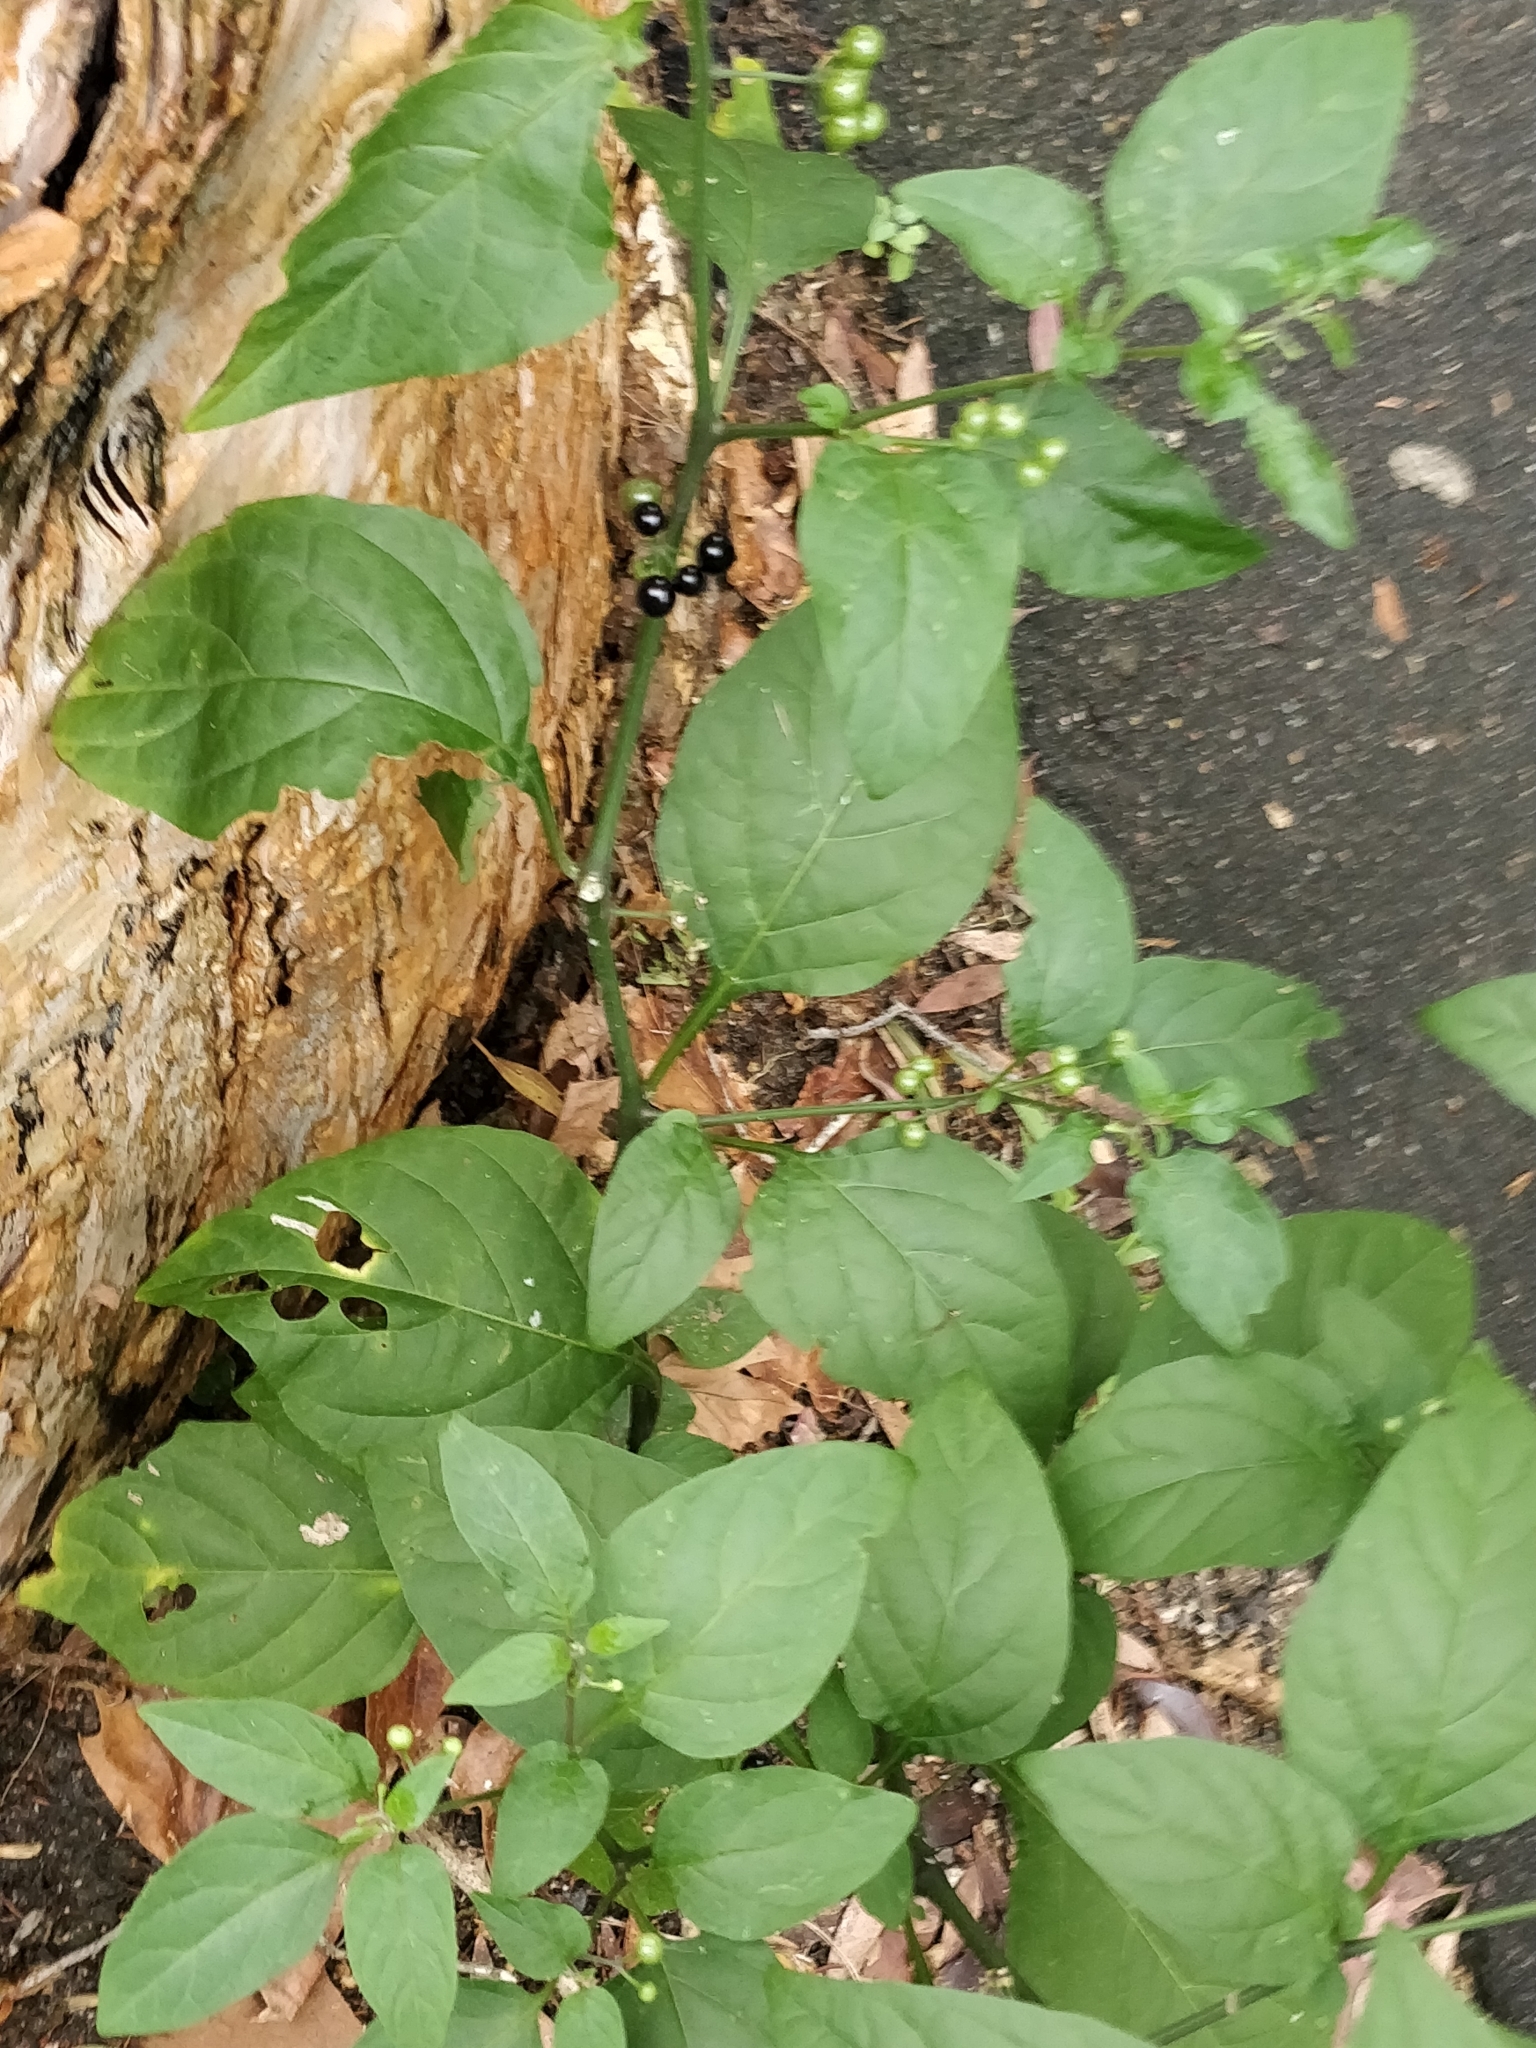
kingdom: Plantae
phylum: Tracheophyta
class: Magnoliopsida
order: Solanales
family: Solanaceae
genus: Solanum
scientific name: Solanum americanum
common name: American black nightshade
